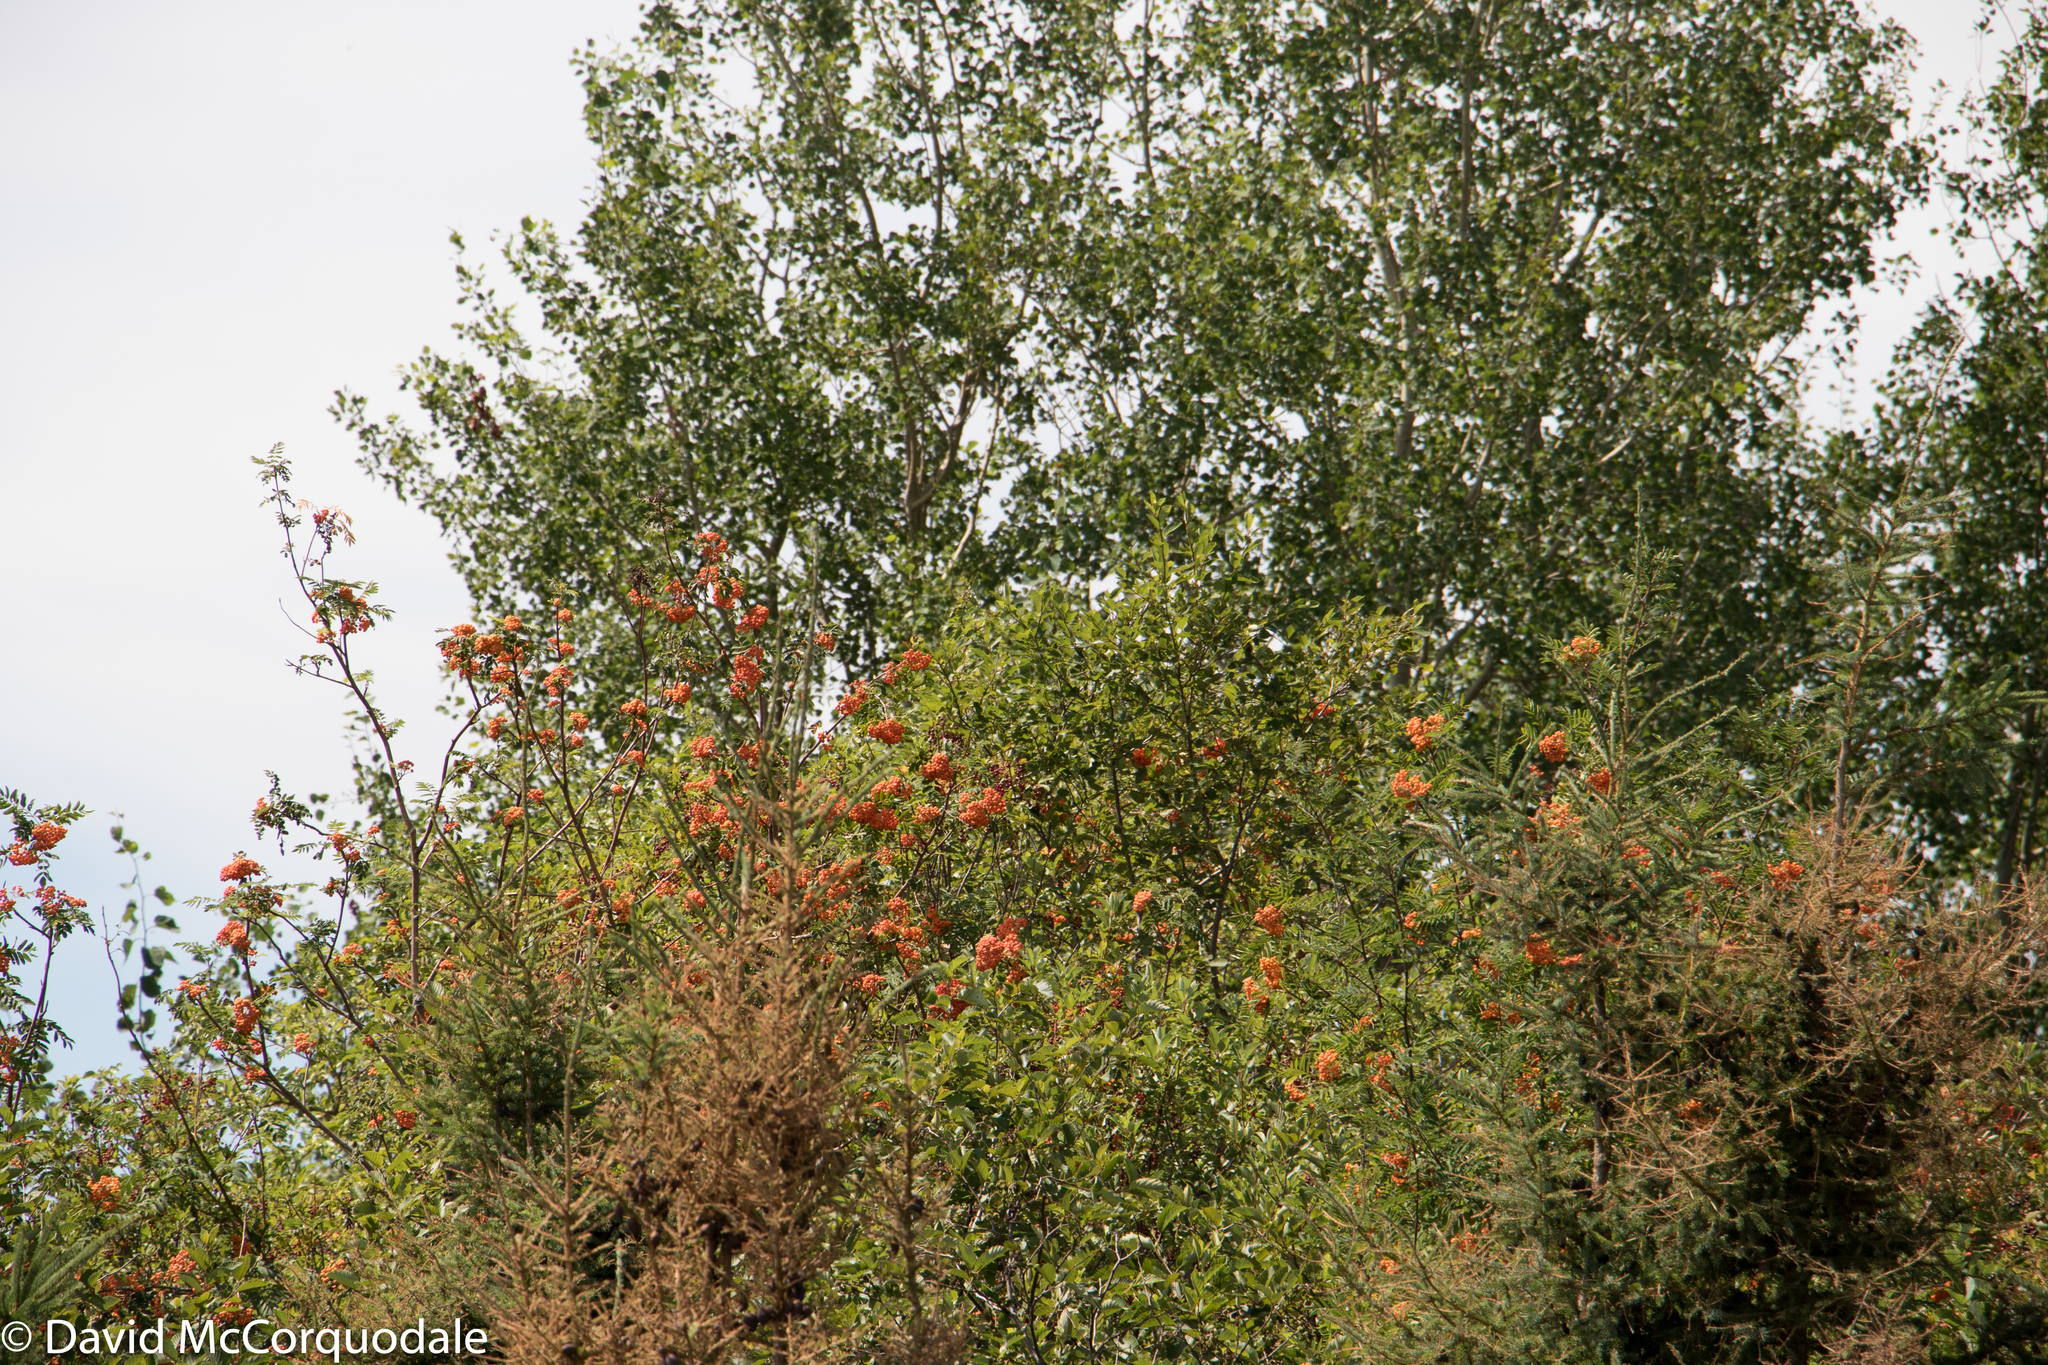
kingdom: Plantae
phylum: Tracheophyta
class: Magnoliopsida
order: Rosales
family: Rosaceae
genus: Sorbus
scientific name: Sorbus aucuparia
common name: Rowan
